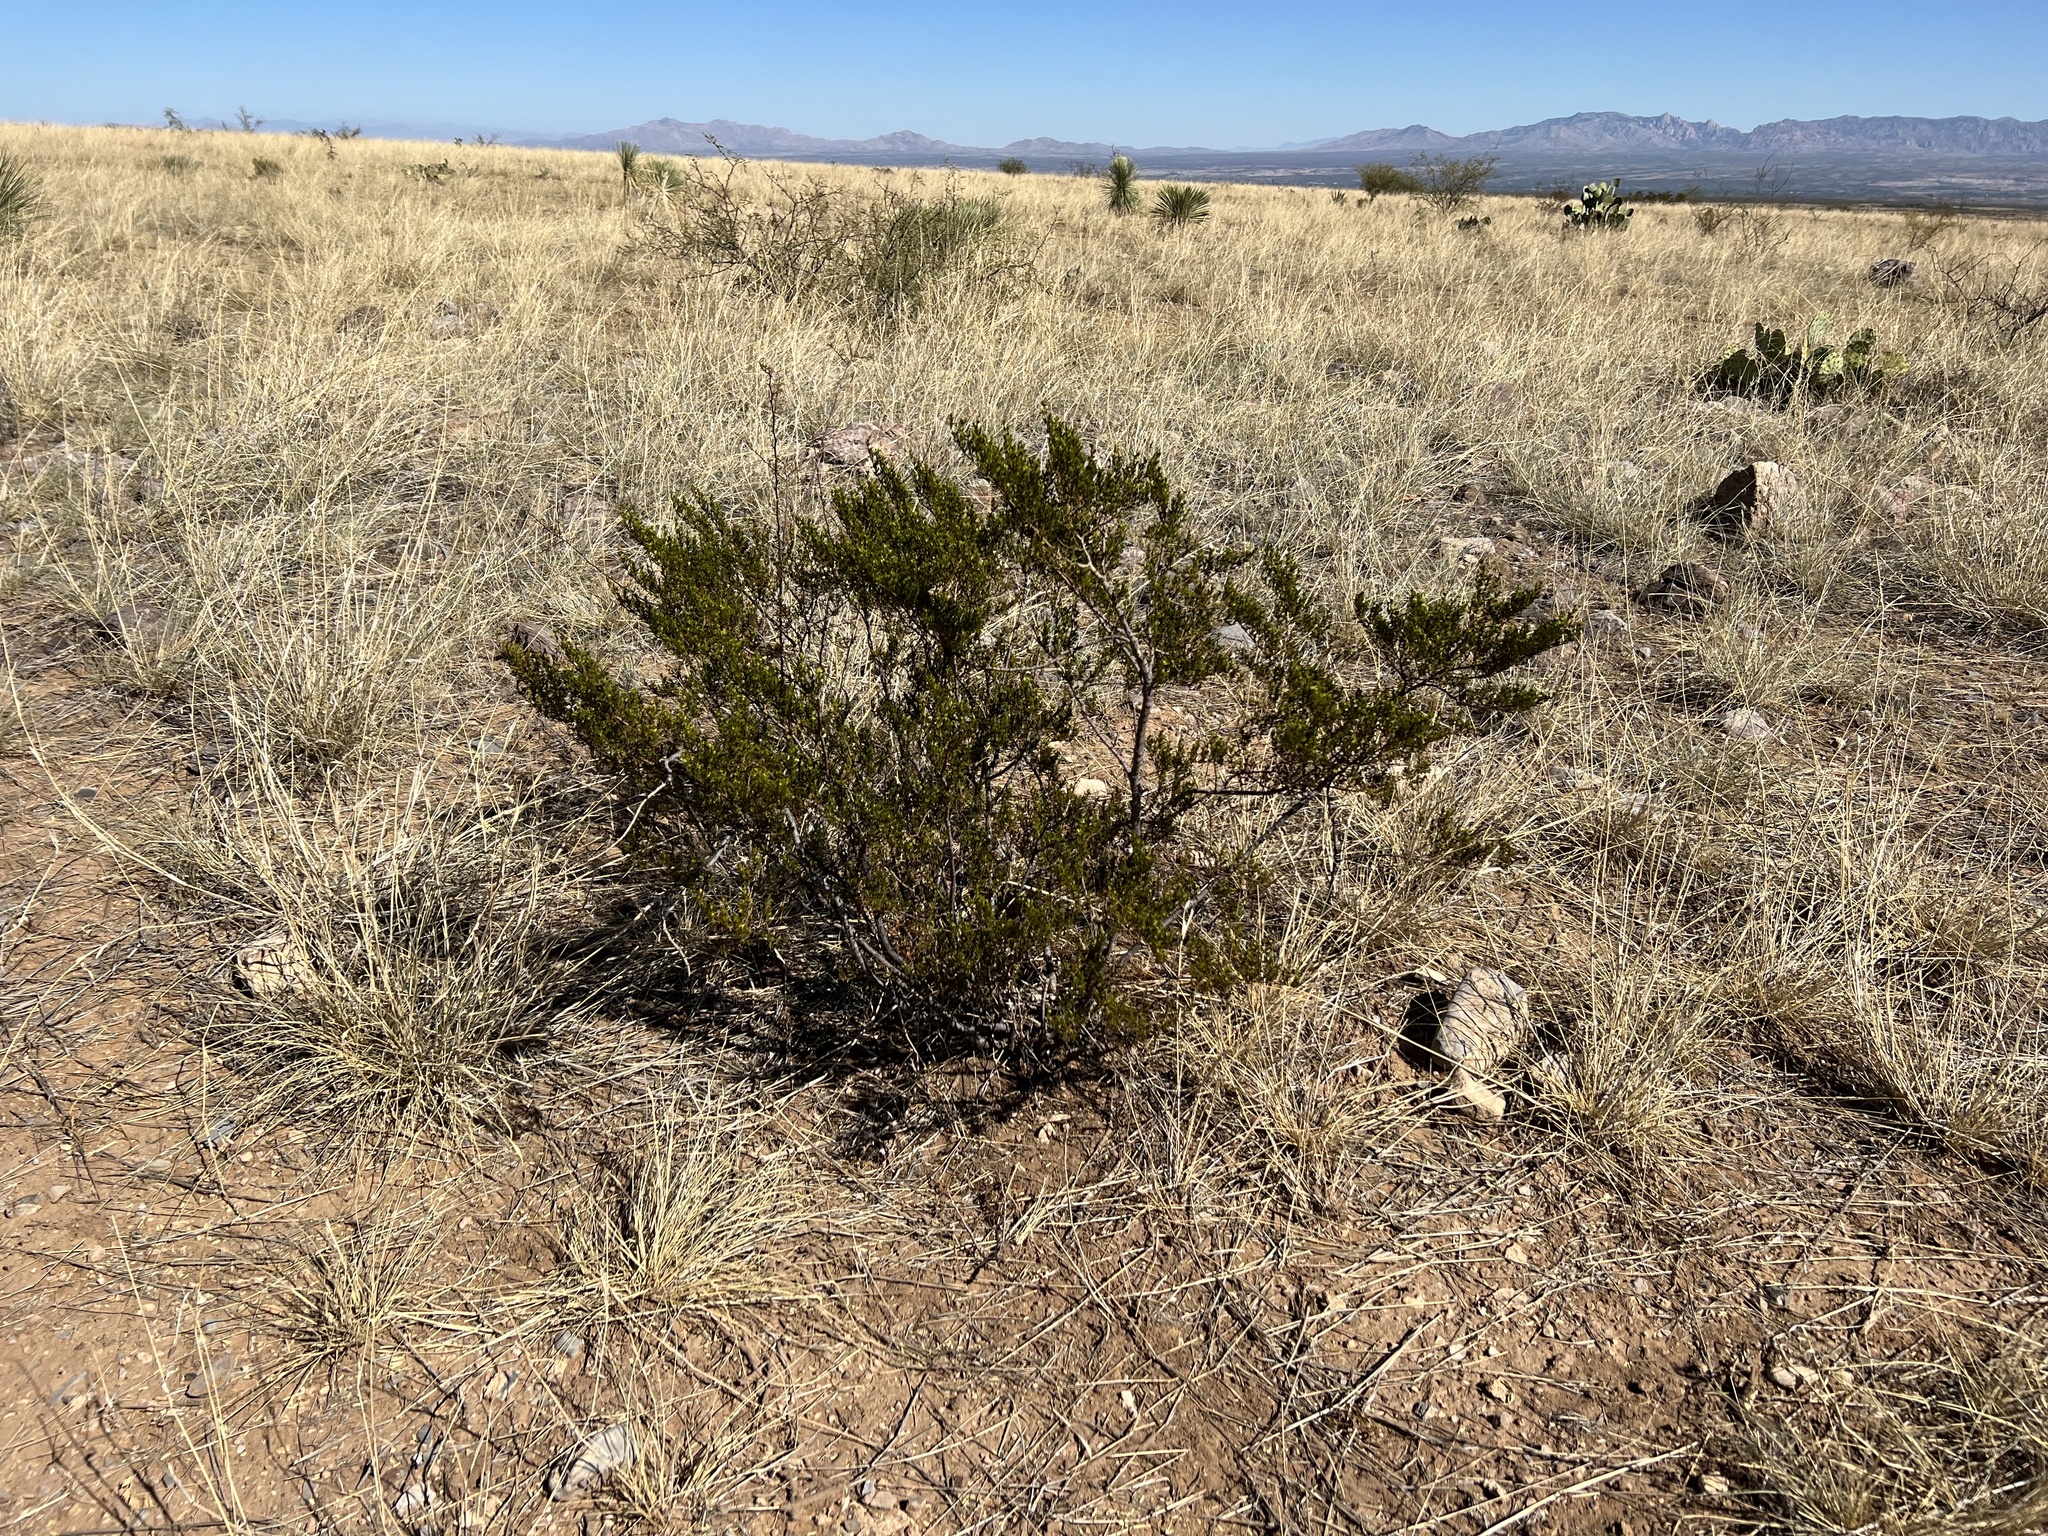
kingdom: Plantae
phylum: Tracheophyta
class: Magnoliopsida
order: Zygophyllales
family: Zygophyllaceae
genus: Larrea
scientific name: Larrea tridentata
